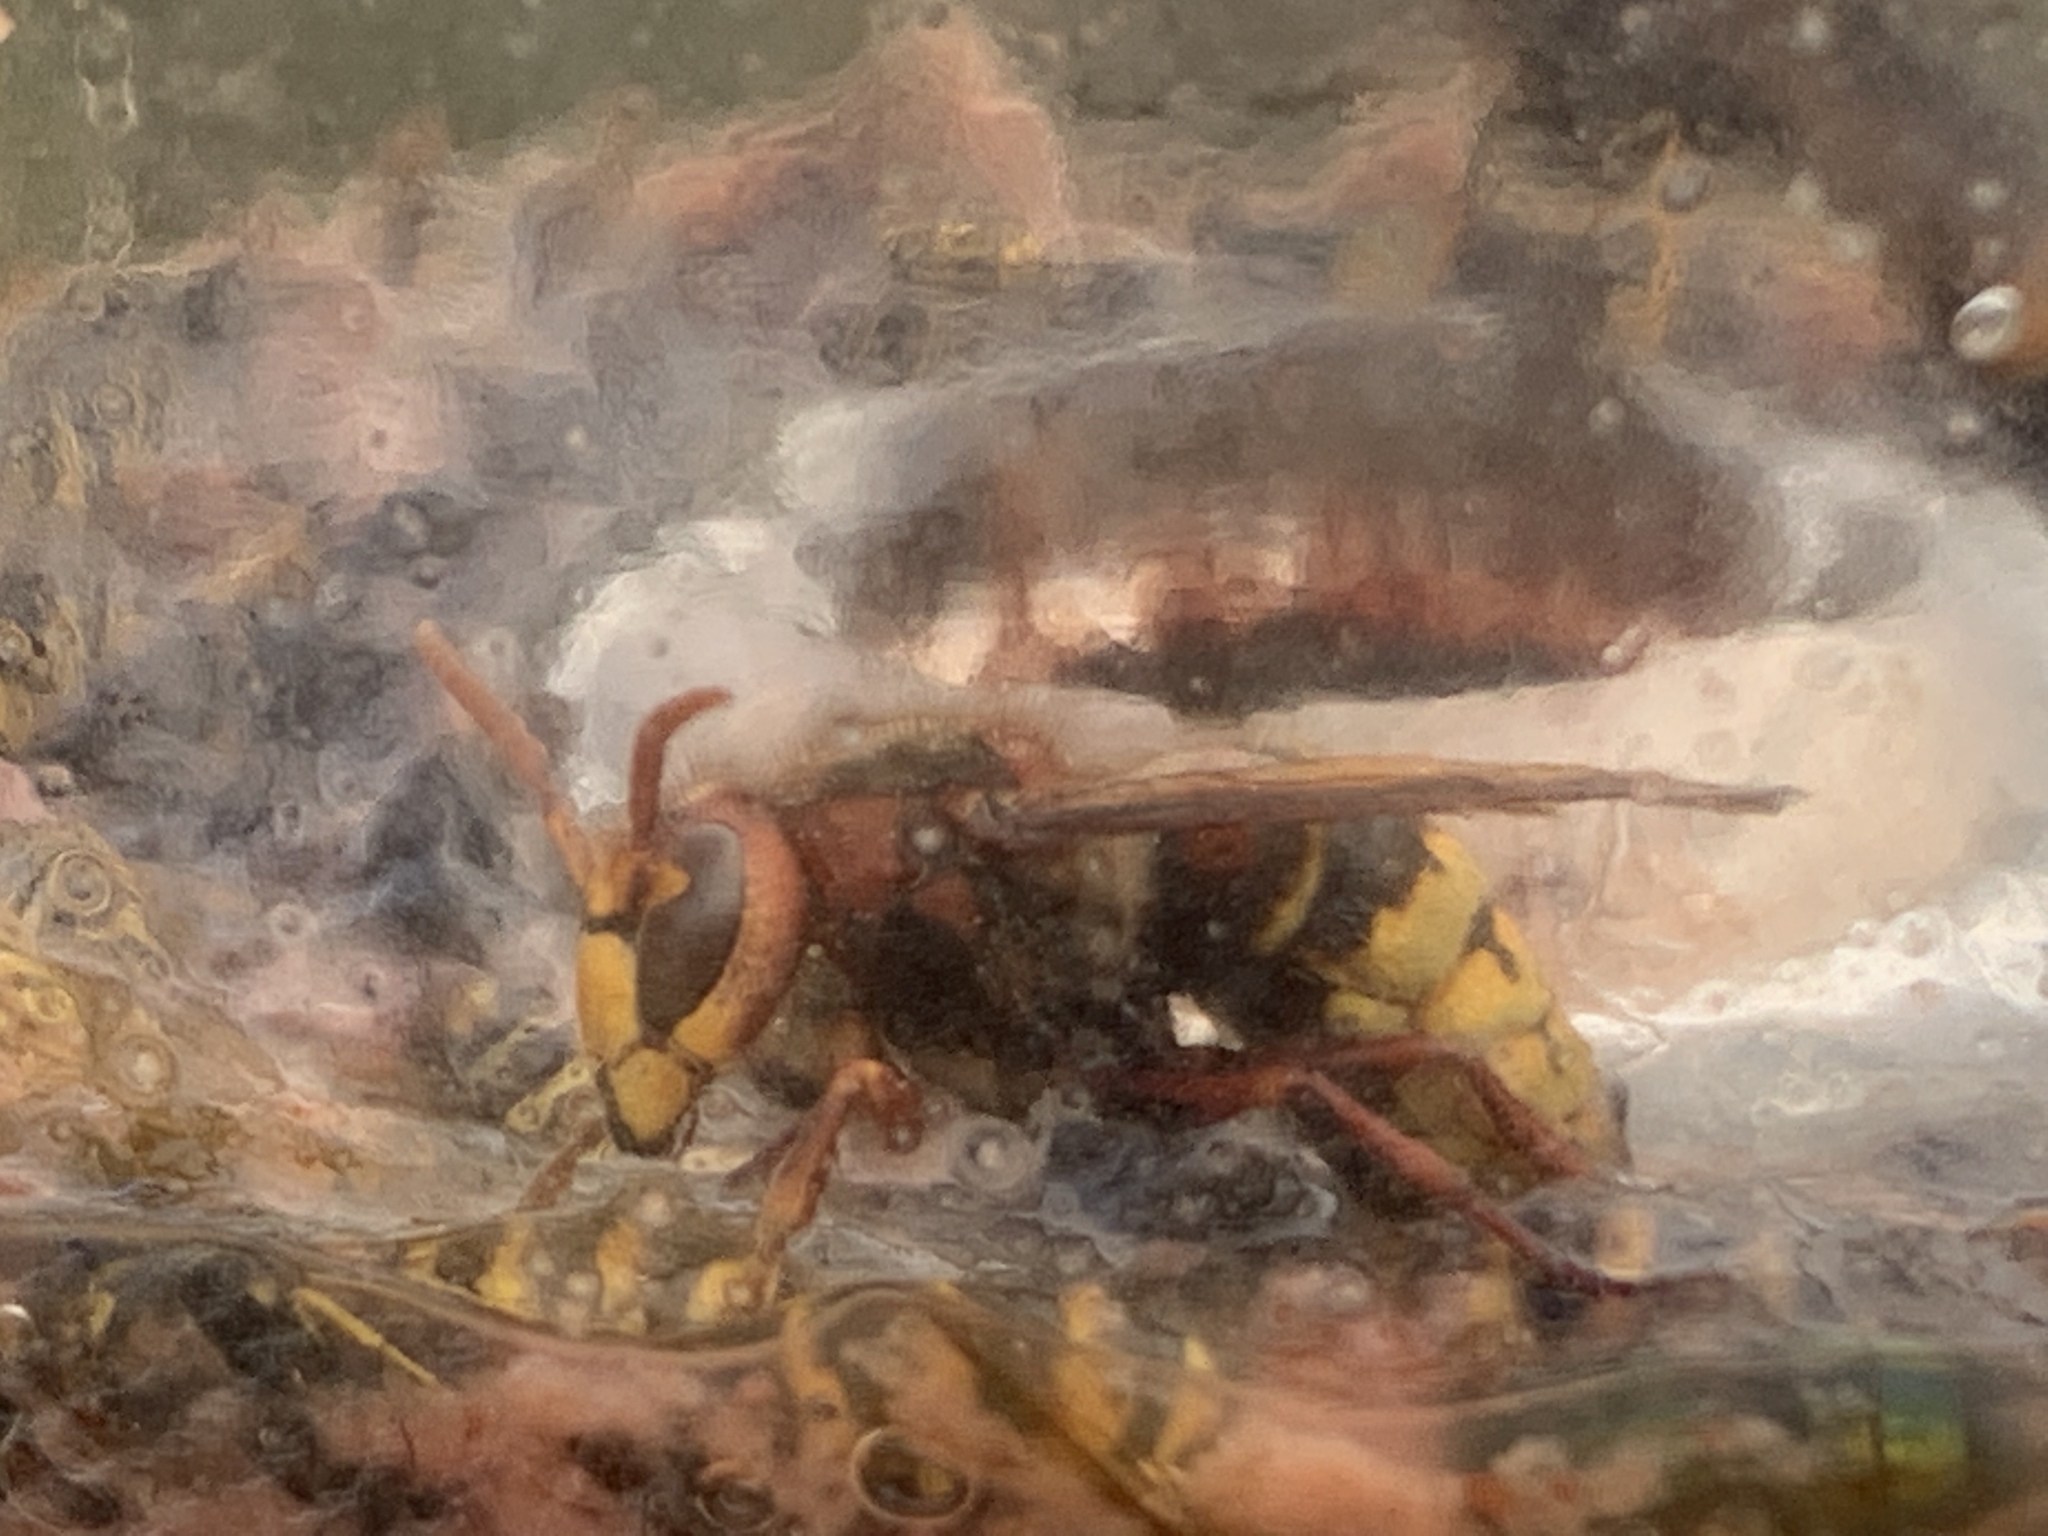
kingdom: Animalia
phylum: Arthropoda
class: Insecta
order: Hymenoptera
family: Vespidae
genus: Vespa
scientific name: Vespa crabro
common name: Hornet
